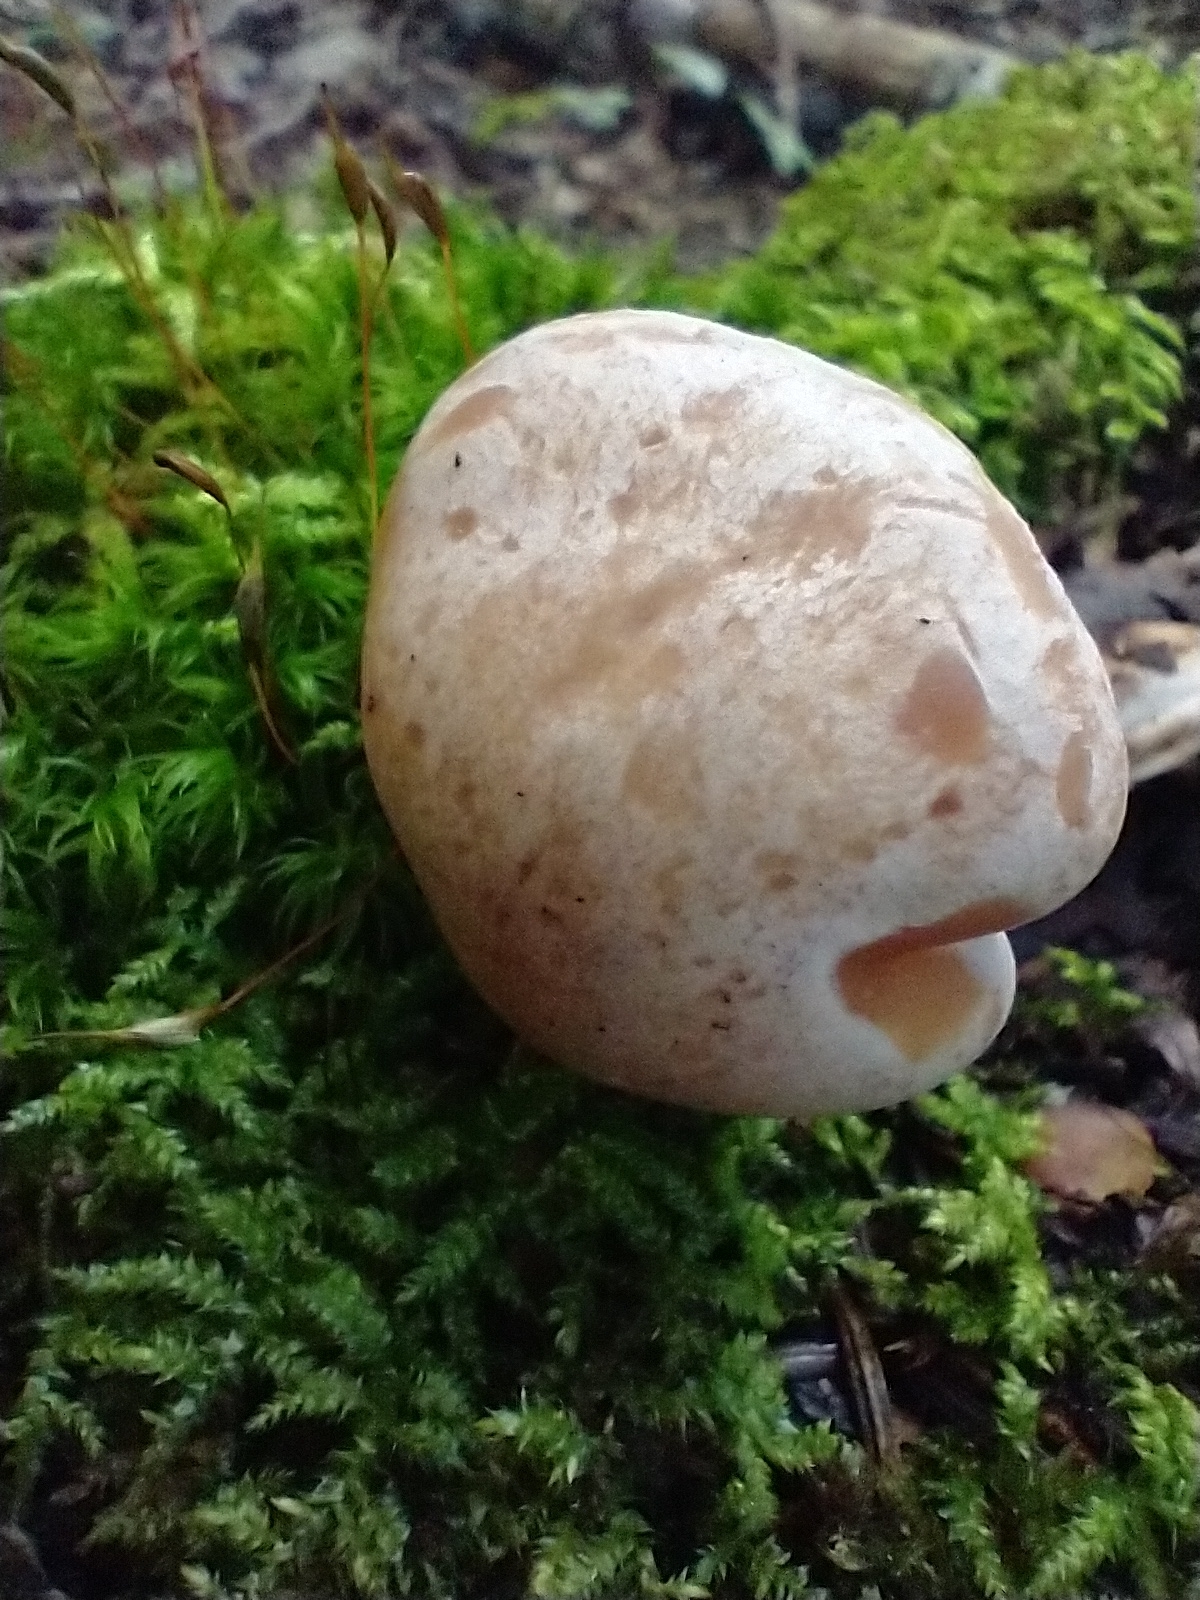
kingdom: Fungi
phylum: Basidiomycota
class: Agaricomycetes
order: Agaricales
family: Omphalotaceae
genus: Rhodocollybia
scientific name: Rhodocollybia maculata
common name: Spotted tough-shank
